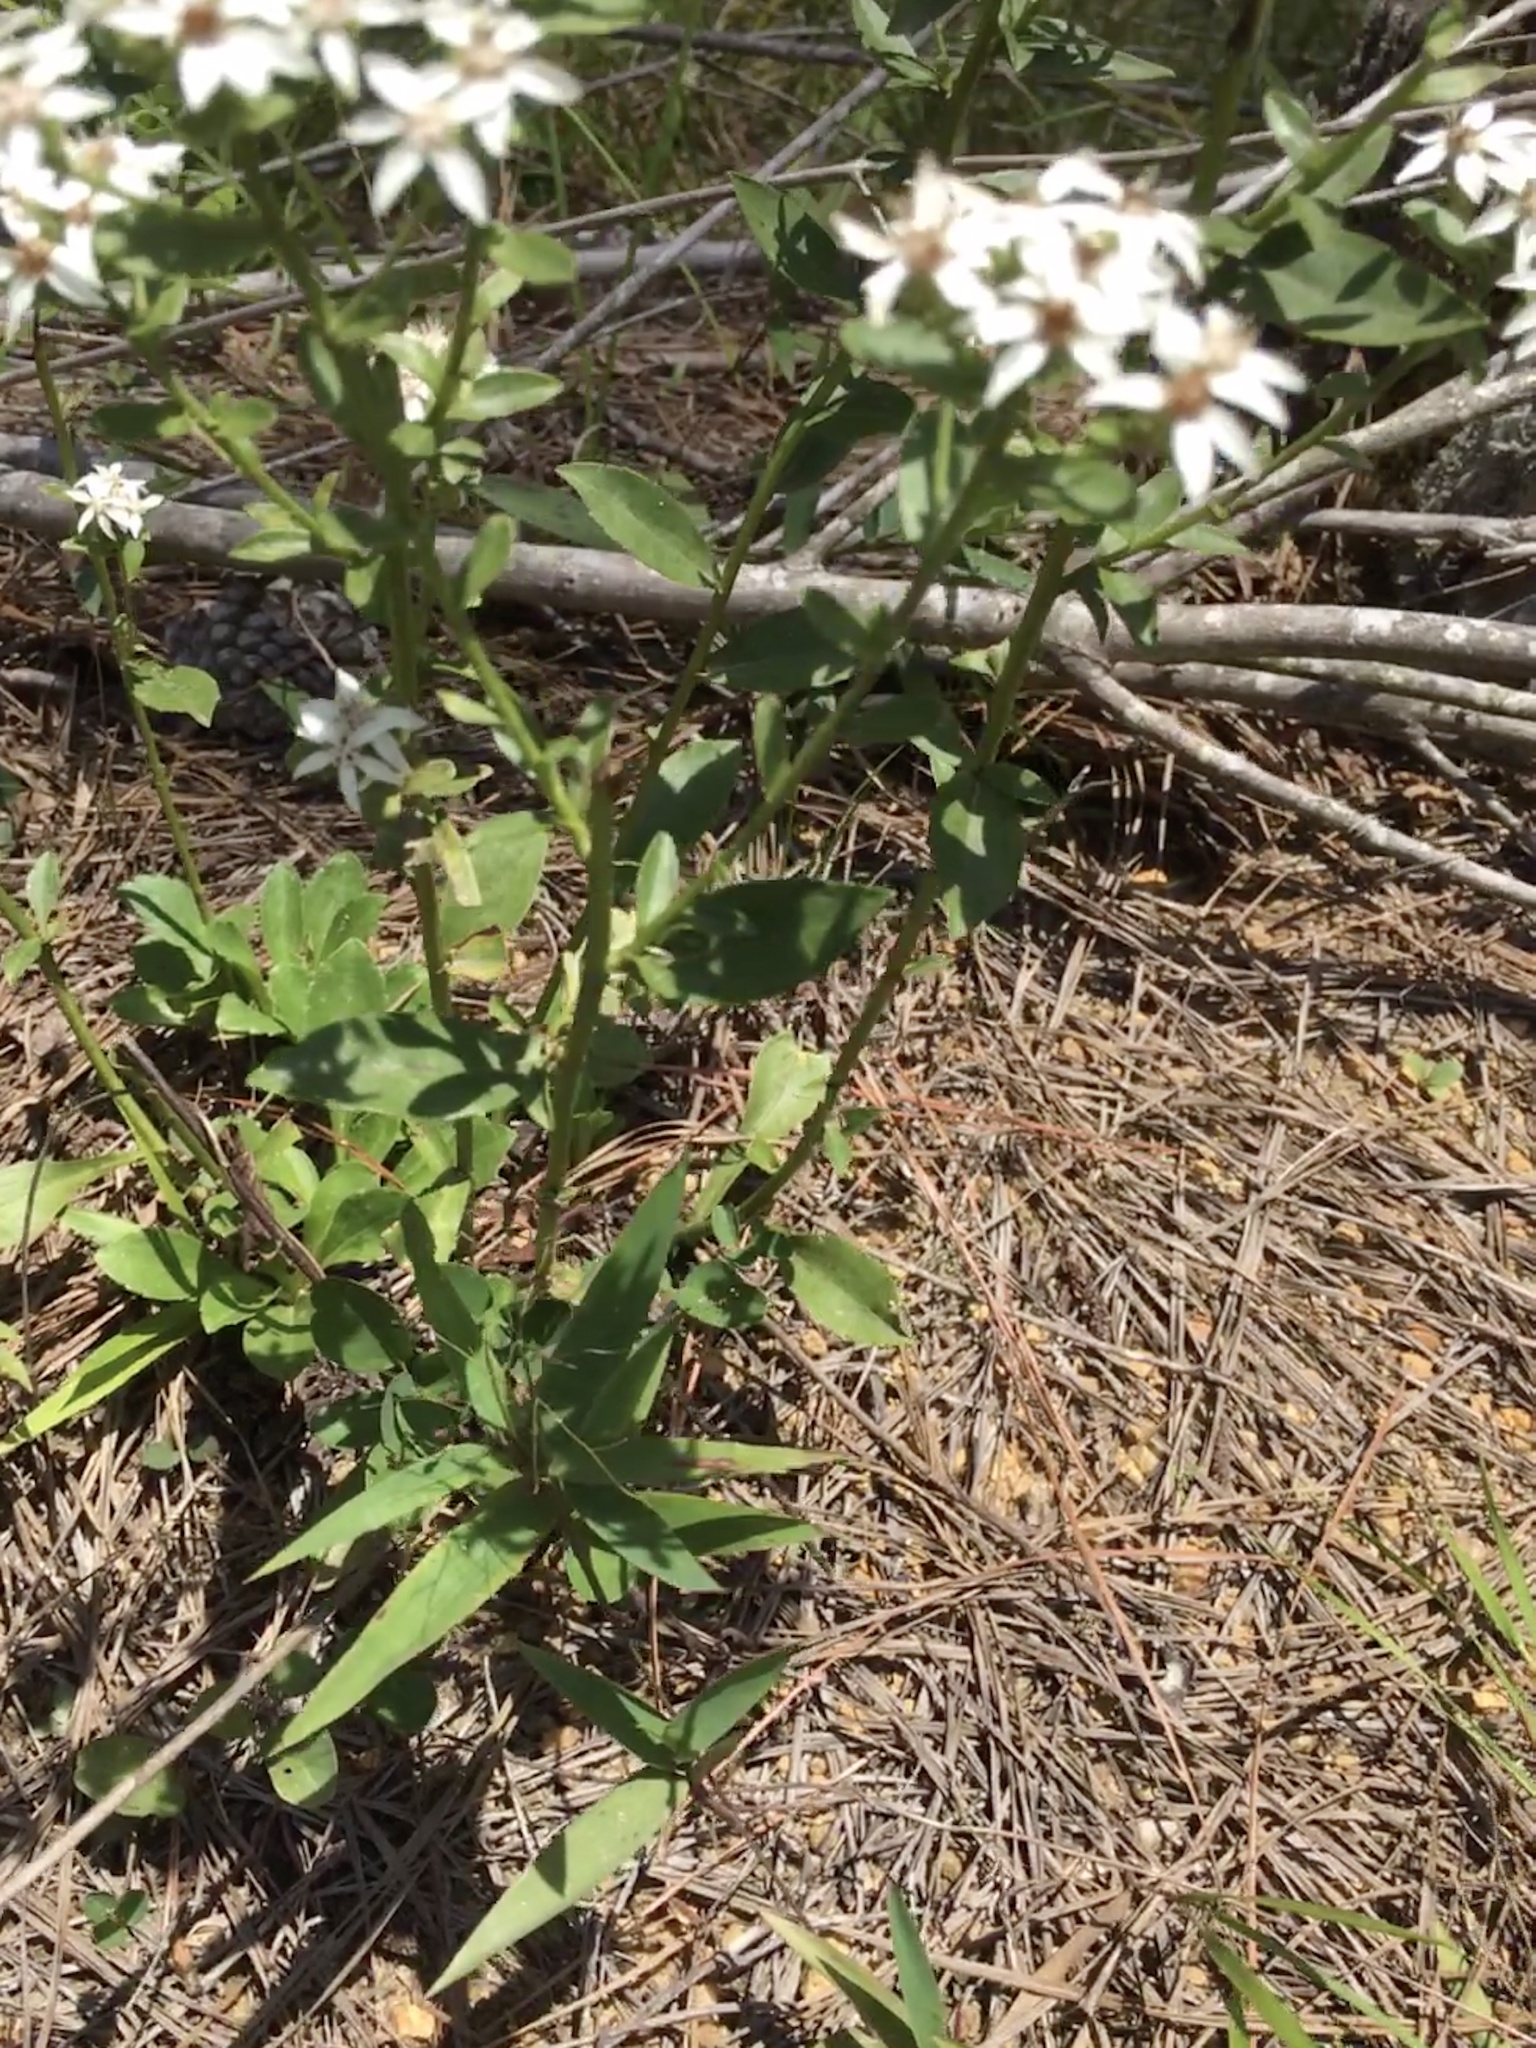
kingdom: Plantae
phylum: Tracheophyta
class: Magnoliopsida
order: Asterales
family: Asteraceae
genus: Sericocarpus
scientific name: Sericocarpus asteroides
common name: Toothed white-top aster
